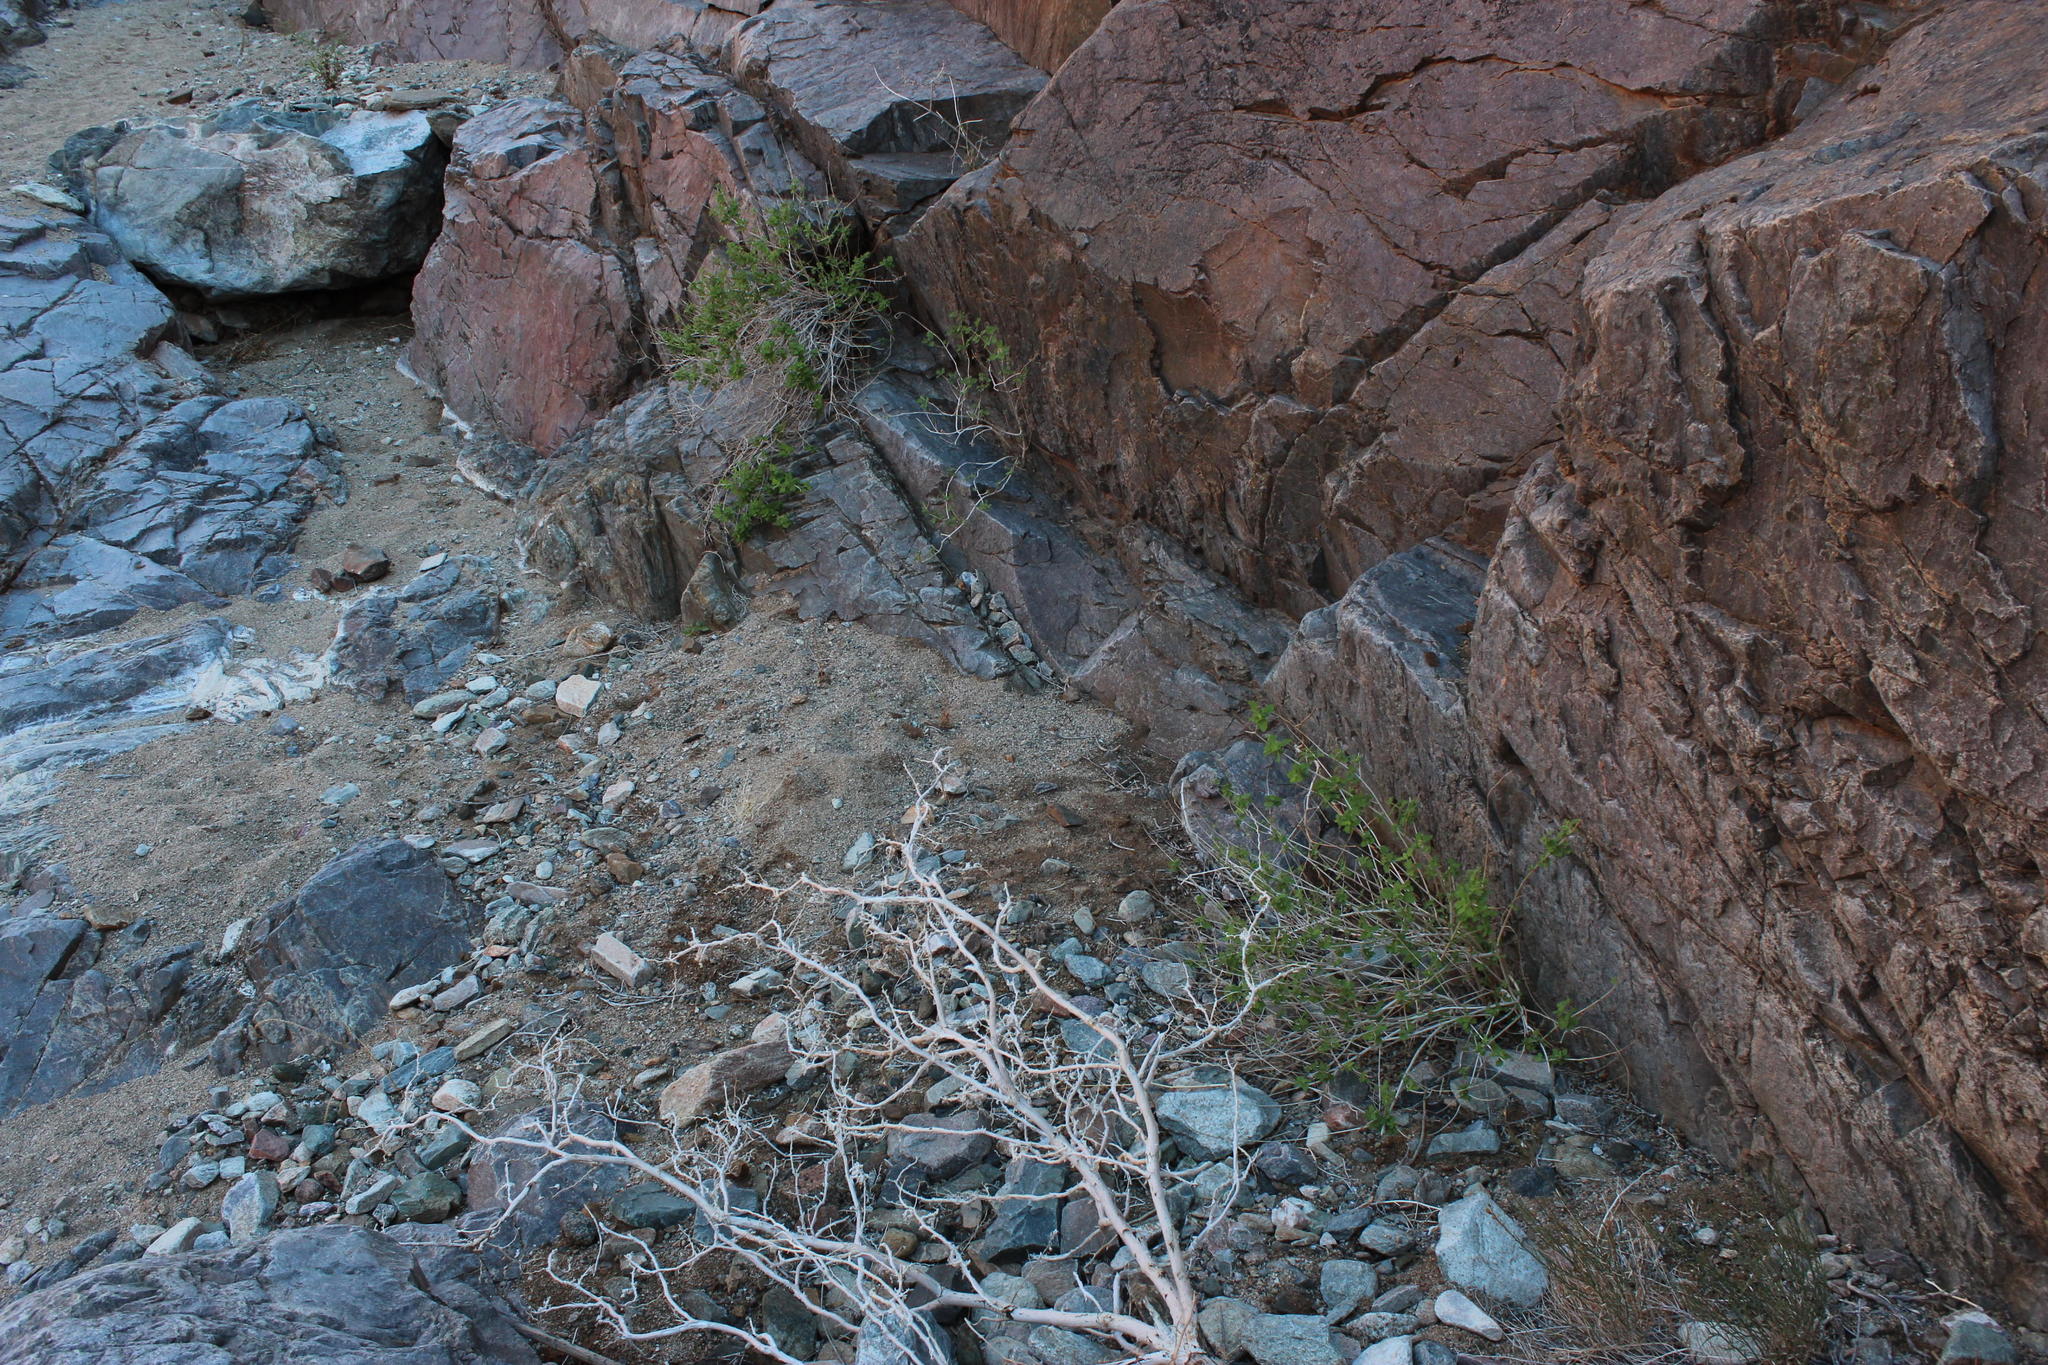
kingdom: Plantae
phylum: Tracheophyta
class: Magnoliopsida
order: Lamiales
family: Lamiaceae
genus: Salvia
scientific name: Salvia garipensis
